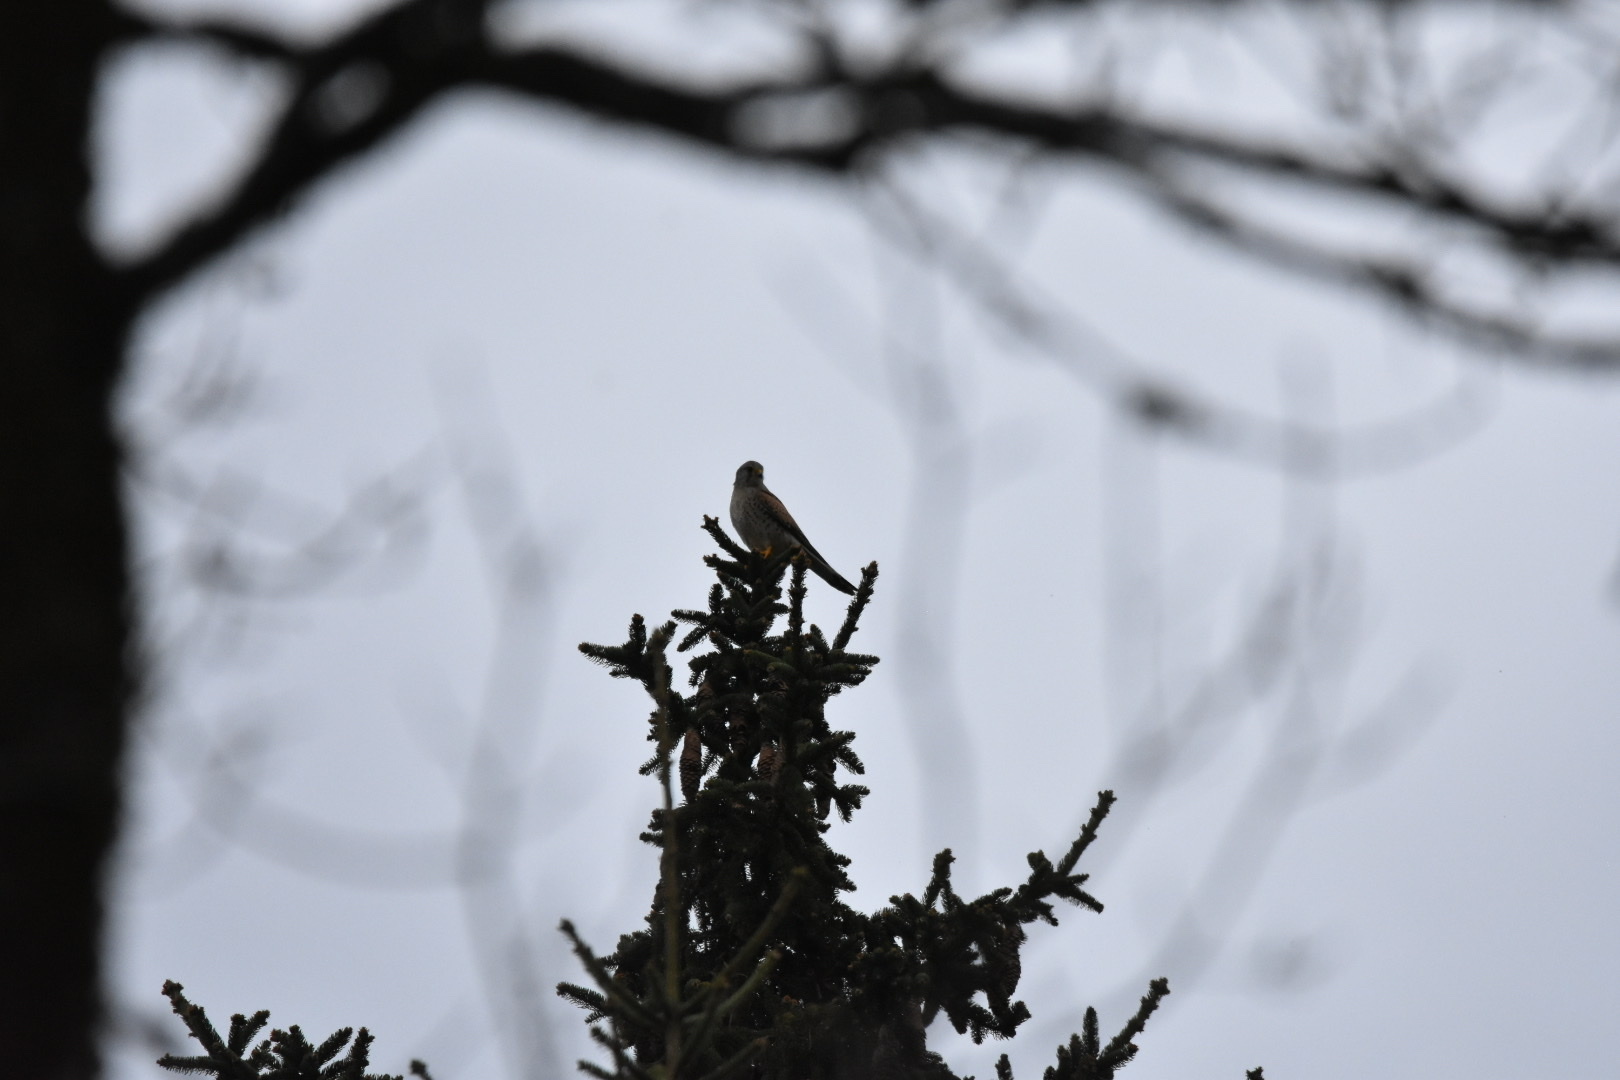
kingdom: Animalia
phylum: Chordata
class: Aves
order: Falconiformes
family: Falconidae
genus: Falco
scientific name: Falco tinnunculus
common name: Common kestrel
